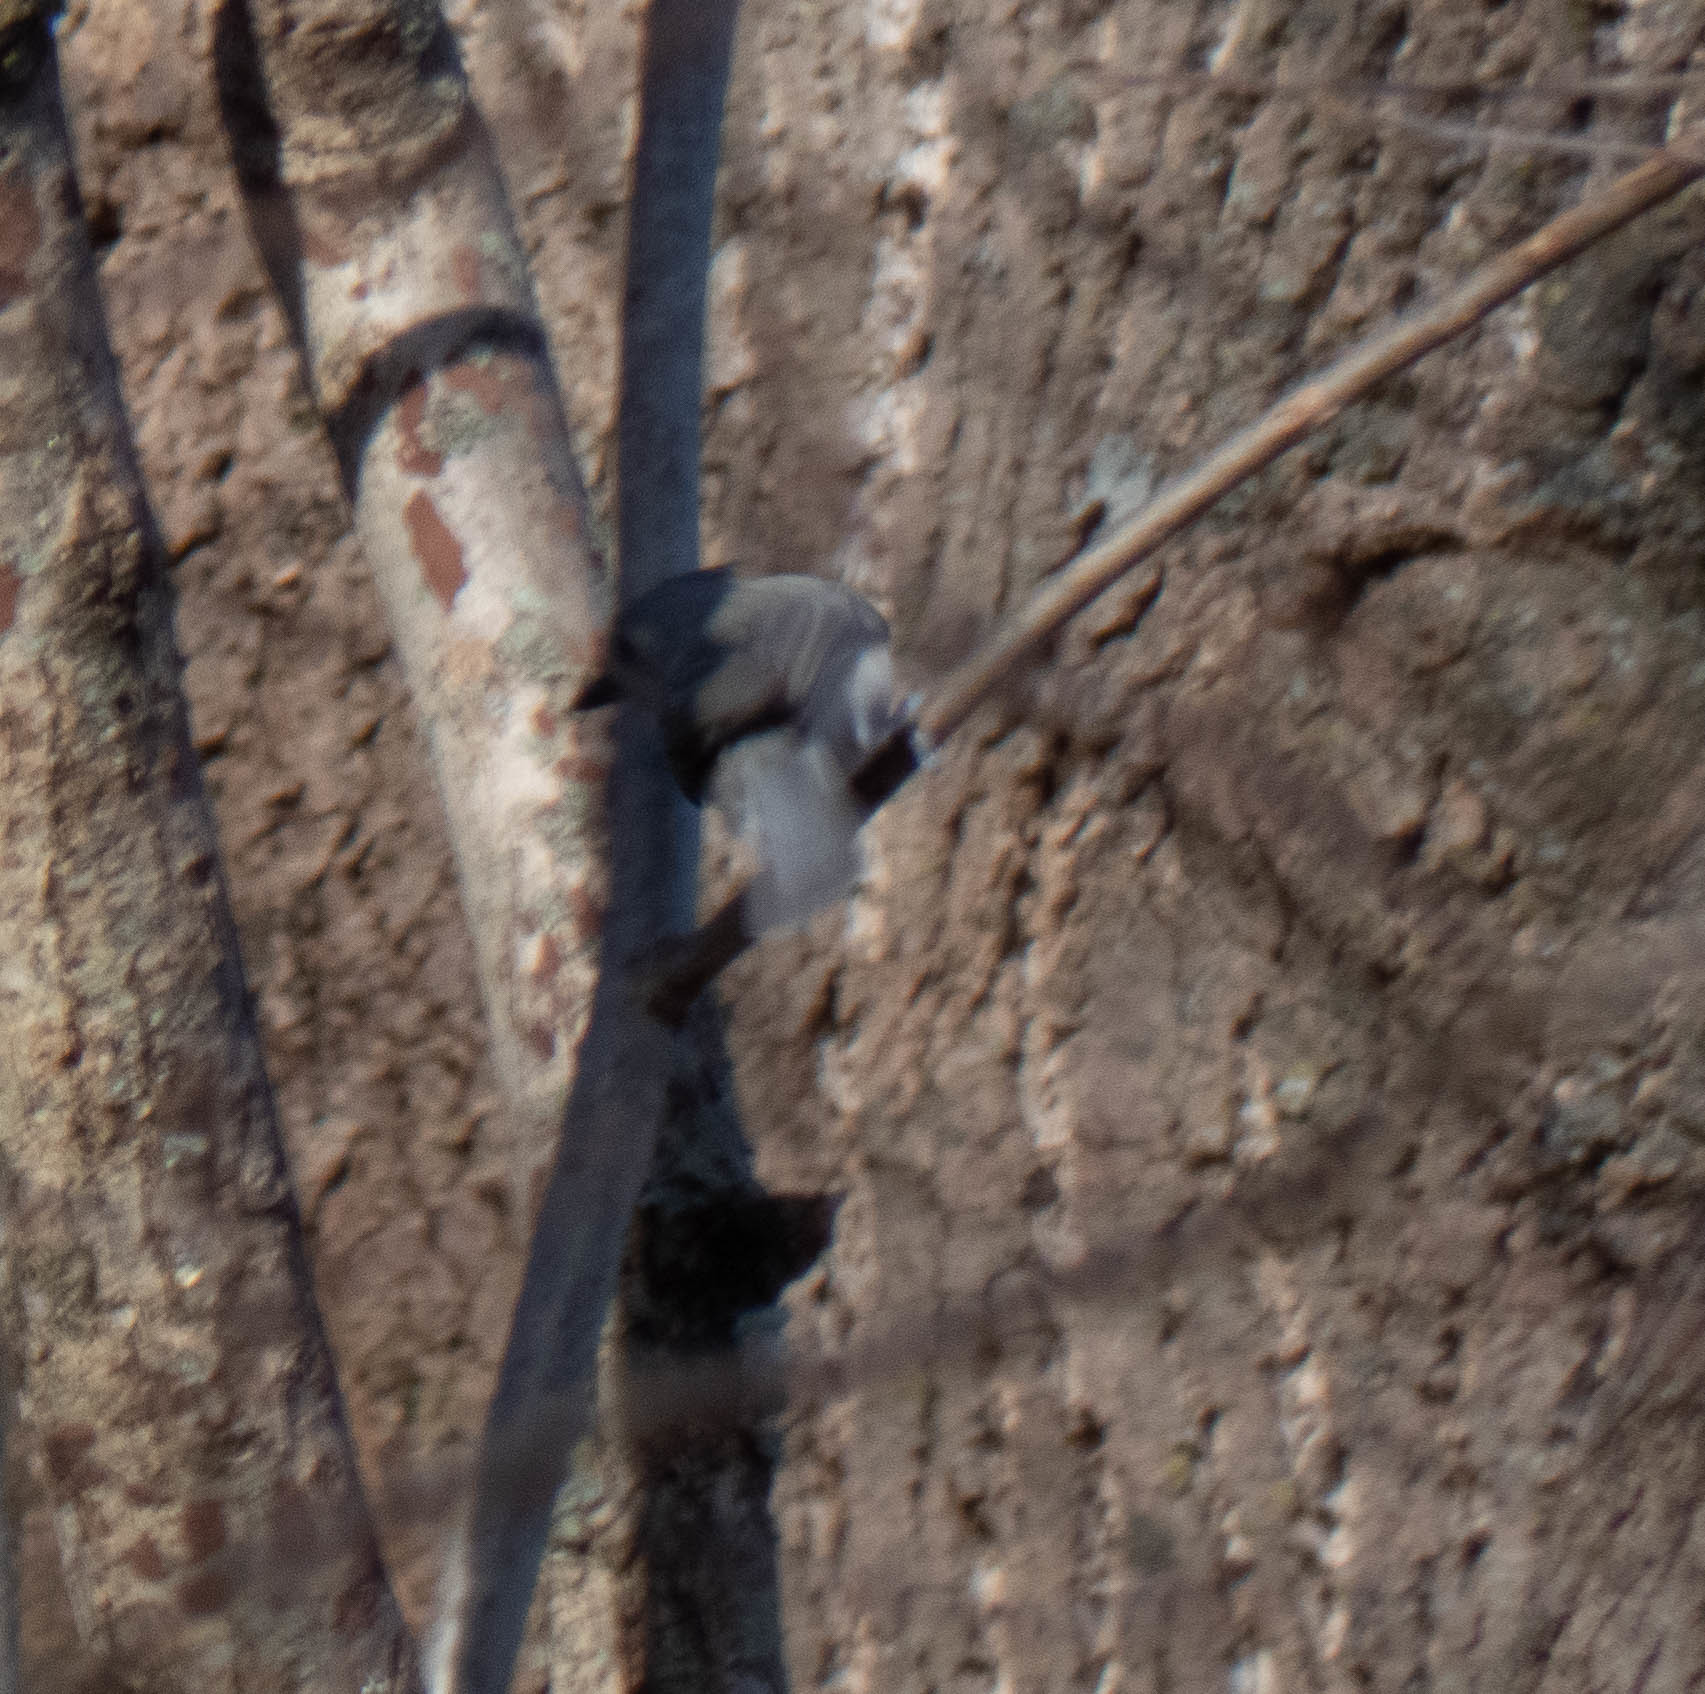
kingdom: Animalia
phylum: Chordata
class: Aves
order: Passeriformes
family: Paridae
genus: Baeolophus
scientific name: Baeolophus bicolor
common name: Tufted titmouse
